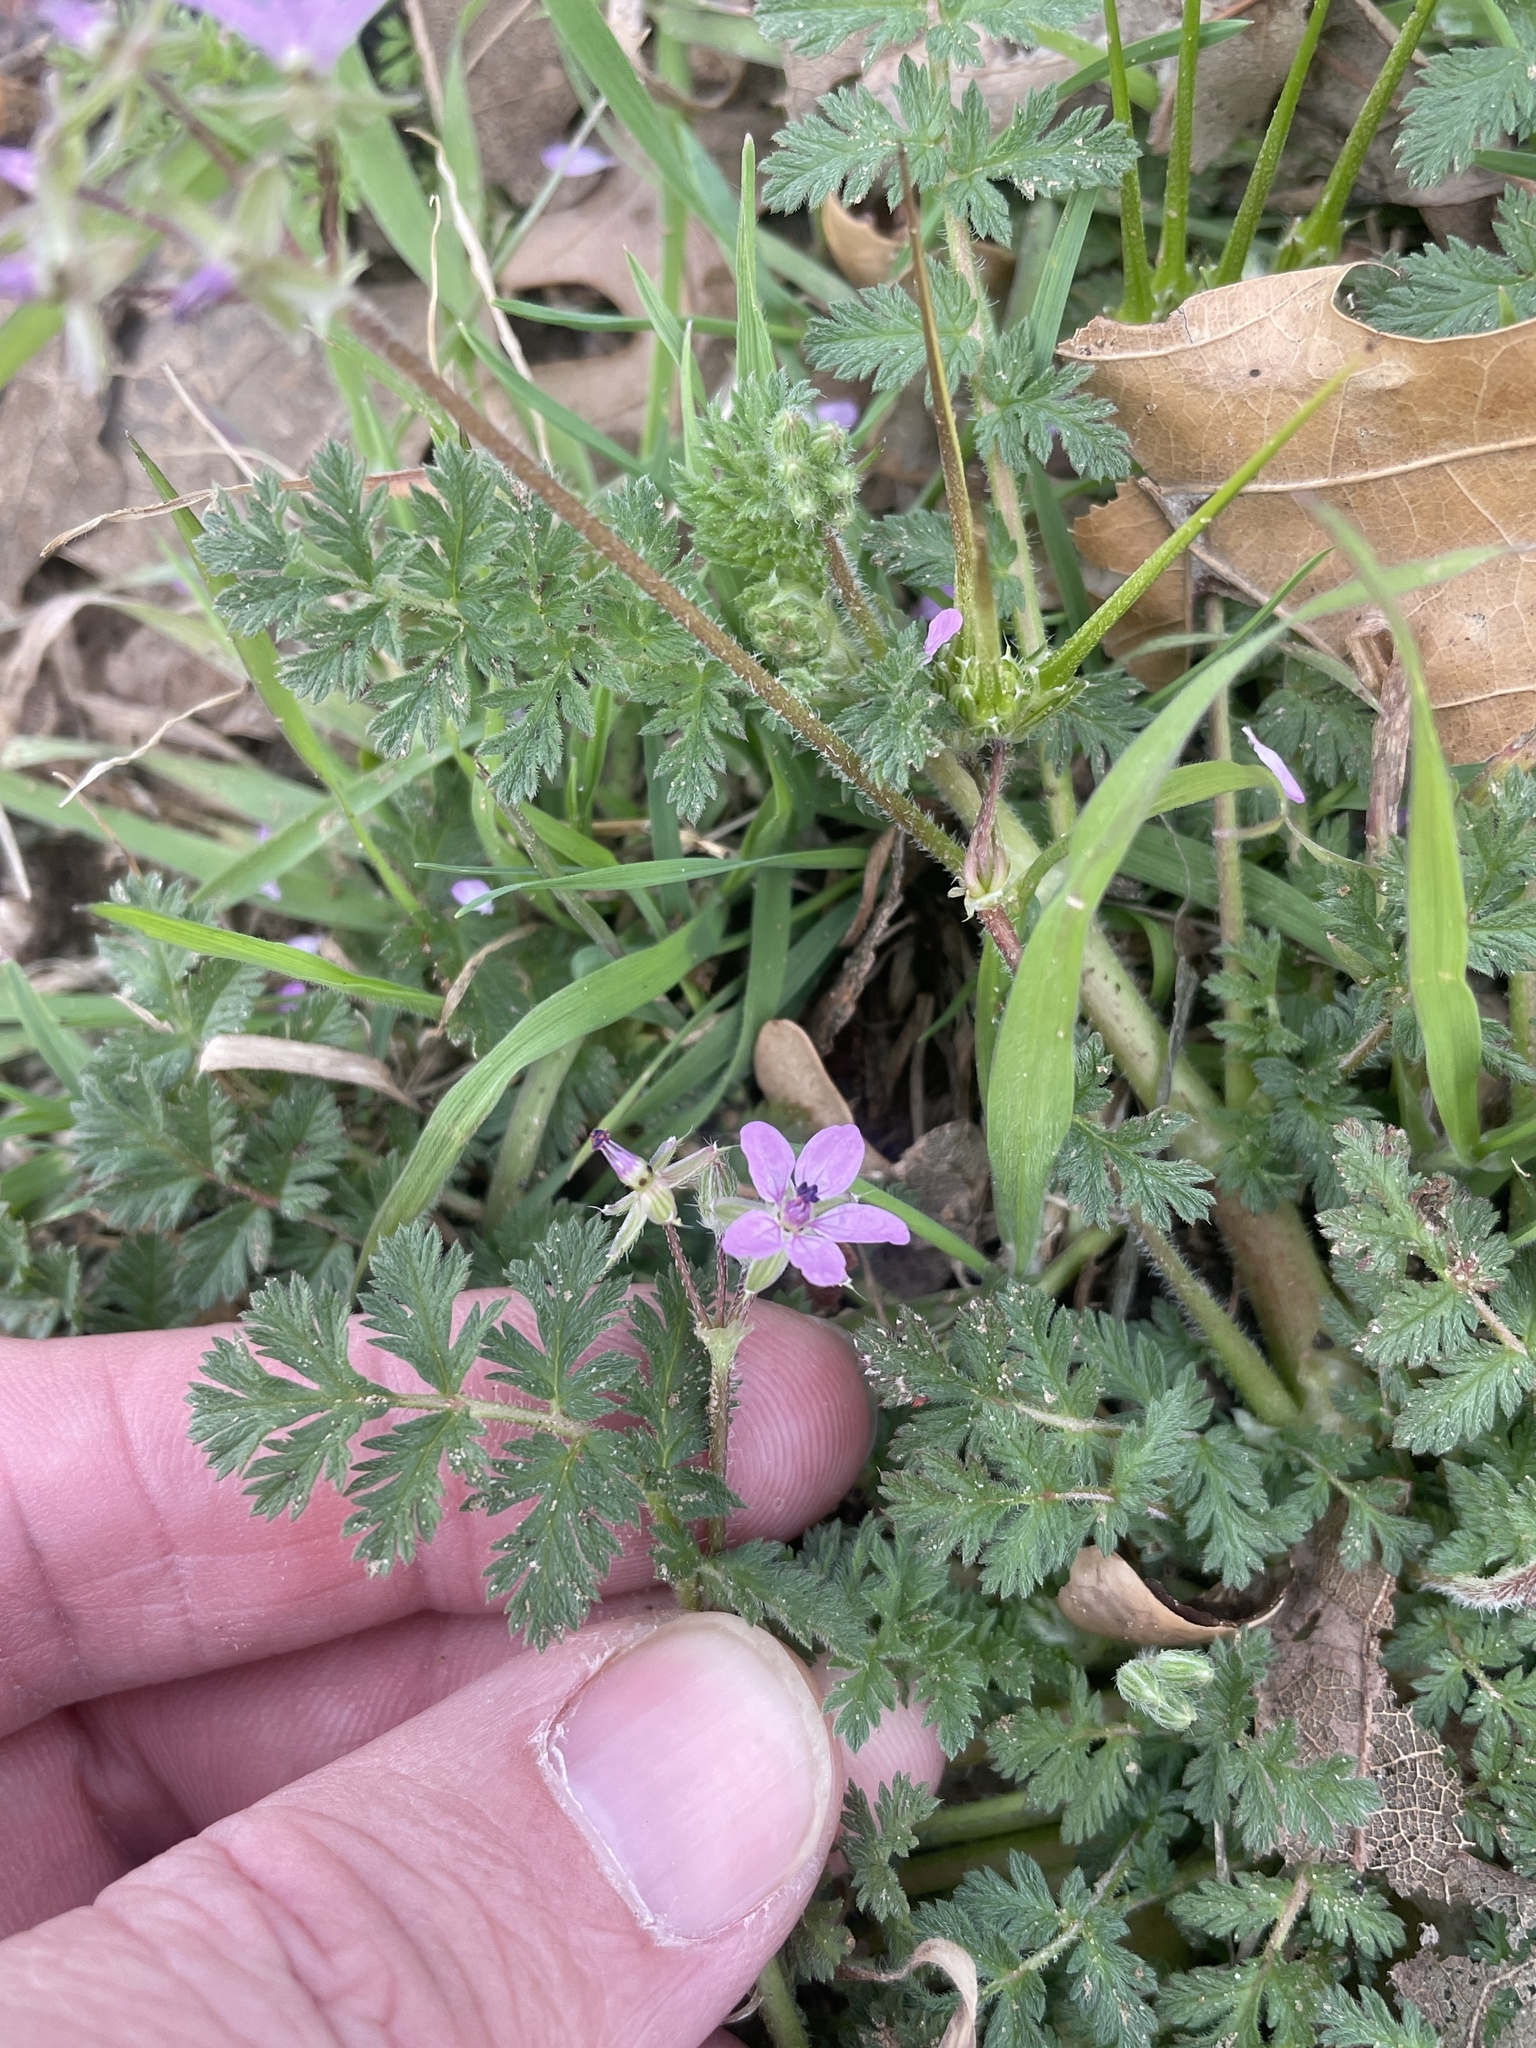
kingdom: Plantae
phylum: Tracheophyta
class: Magnoliopsida
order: Geraniales
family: Geraniaceae
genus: Erodium
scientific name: Erodium cicutarium
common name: Common stork's-bill
